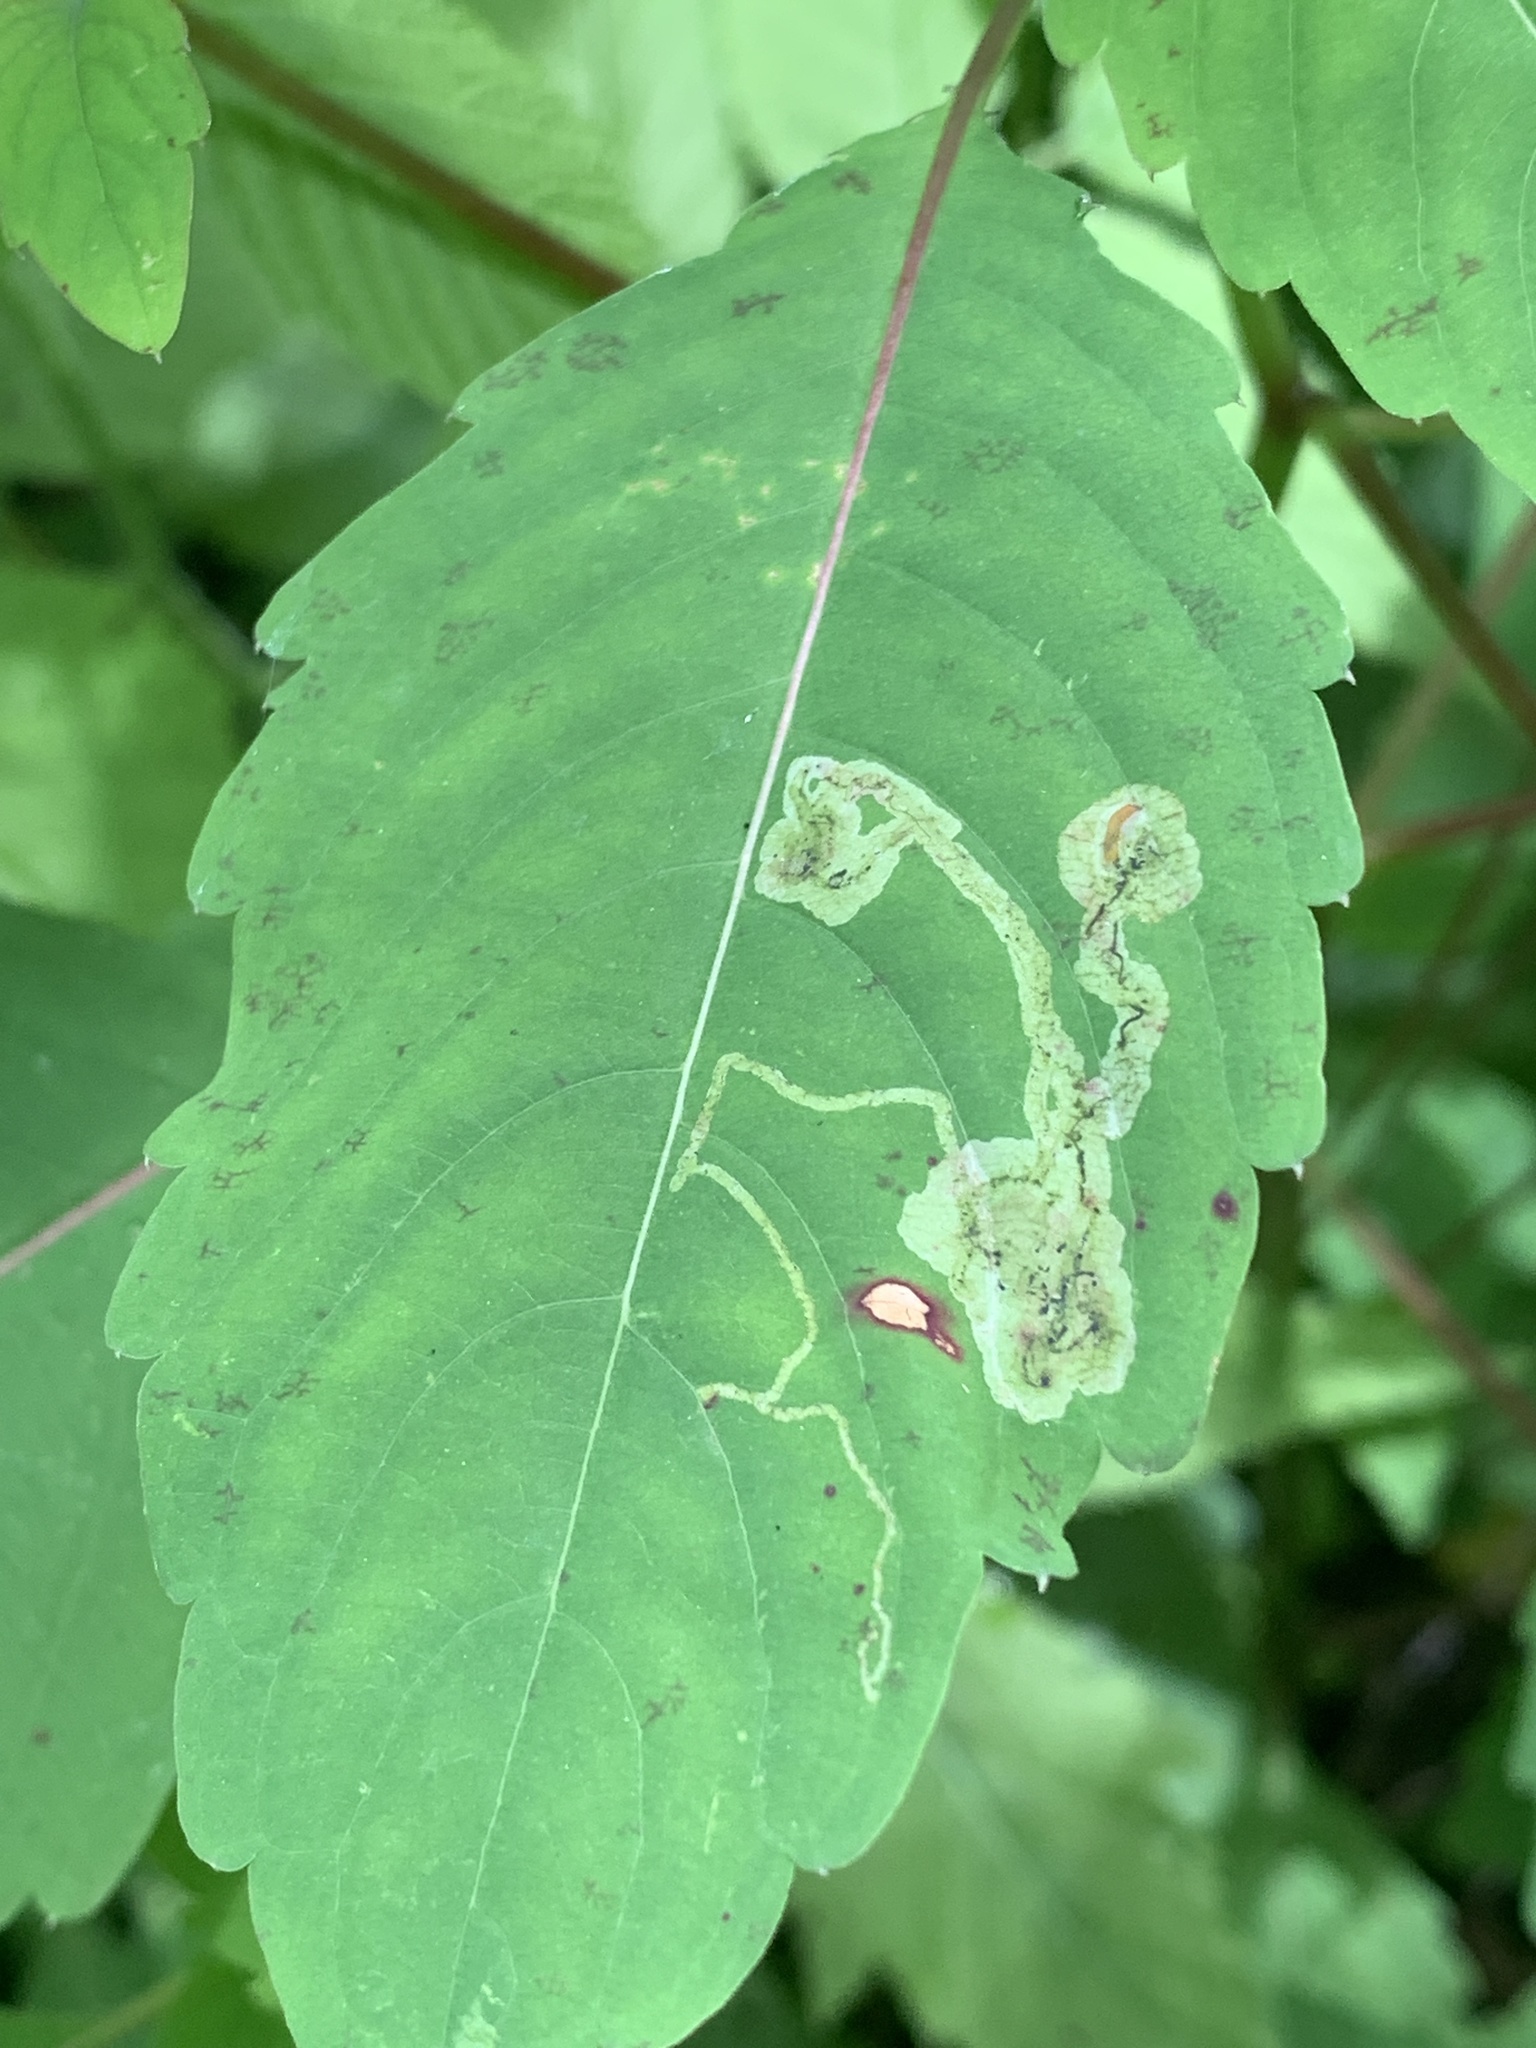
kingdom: Animalia
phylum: Arthropoda
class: Insecta
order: Diptera
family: Agromyzidae
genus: Phytoliriomyza
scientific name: Phytoliriomyza melampyga
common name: Jewelweed leaf-miner fly
